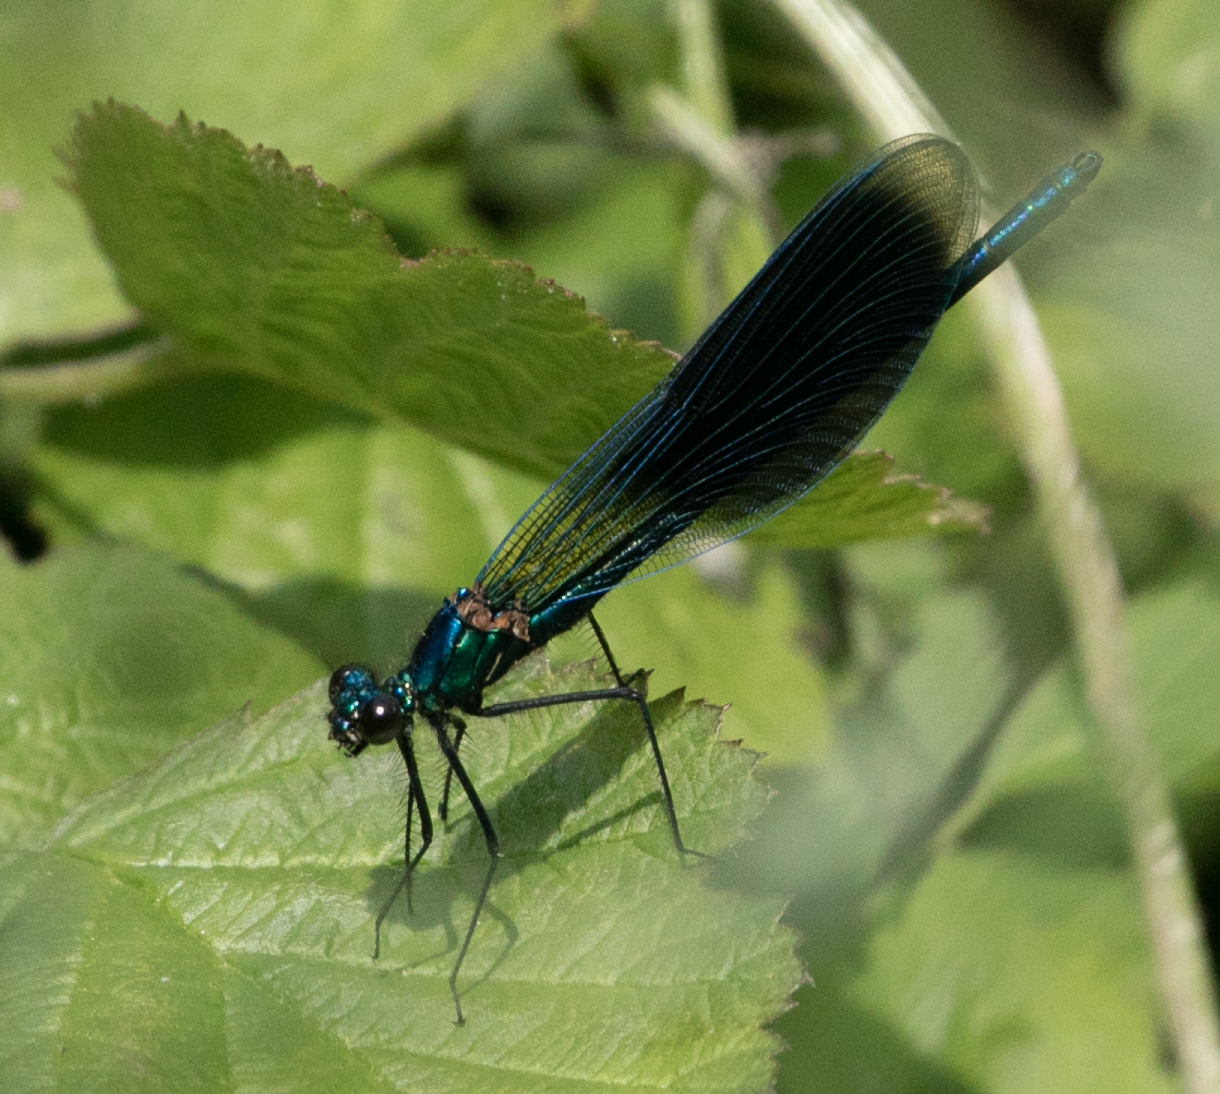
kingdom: Animalia
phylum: Arthropoda
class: Insecta
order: Odonata
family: Calopterygidae
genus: Calopteryx
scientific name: Calopteryx splendens
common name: Banded demoiselle
